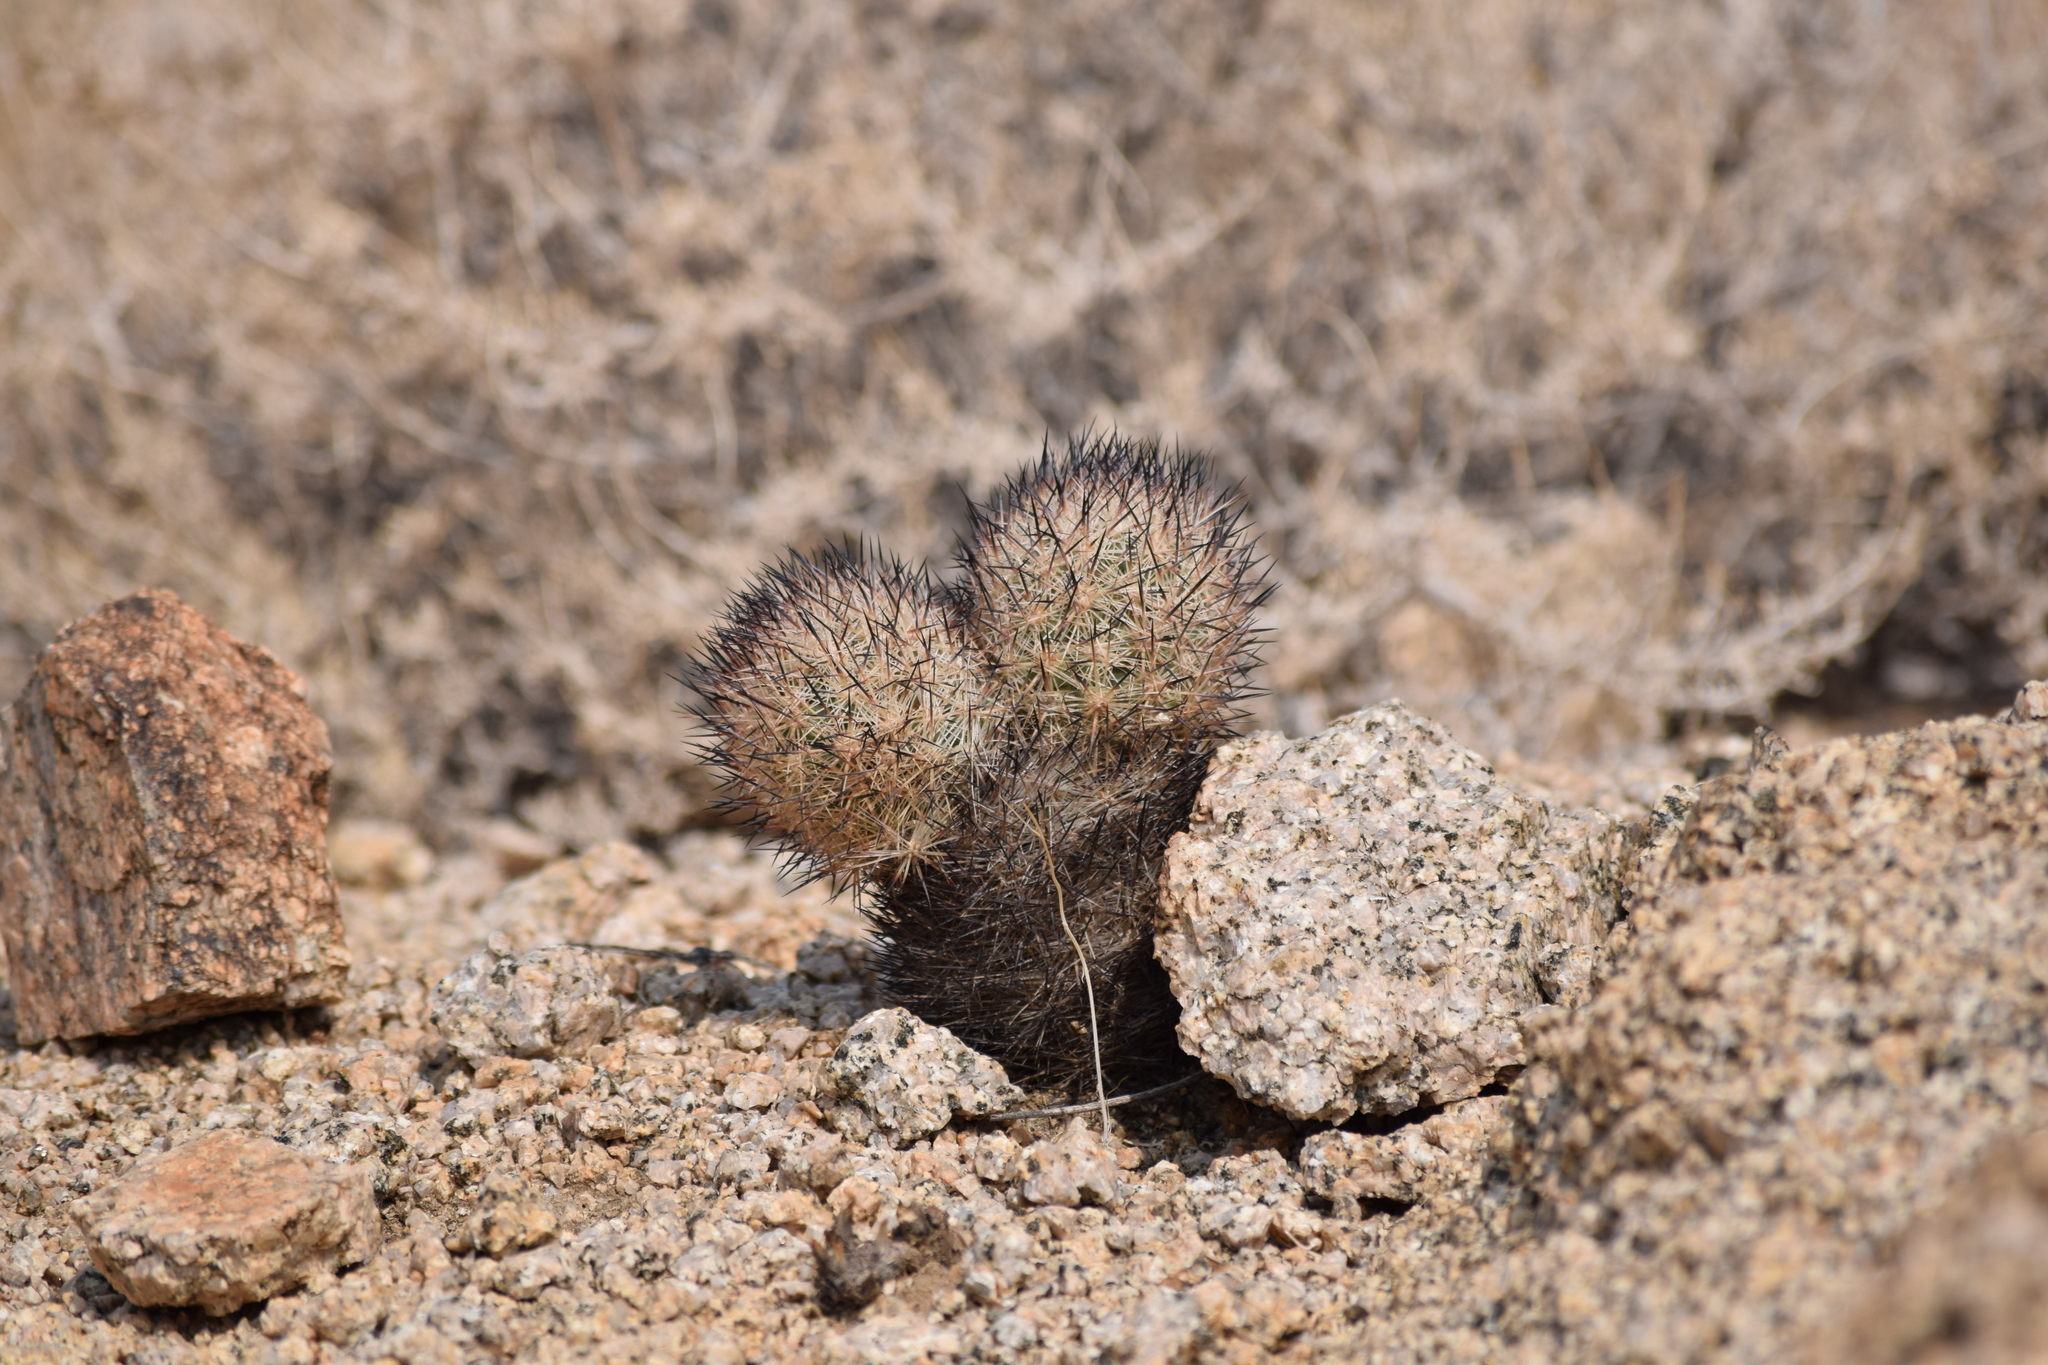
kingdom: Plantae
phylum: Tracheophyta
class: Magnoliopsida
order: Caryophyllales
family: Cactaceae
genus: Pelecyphora
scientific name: Pelecyphora alversonii
